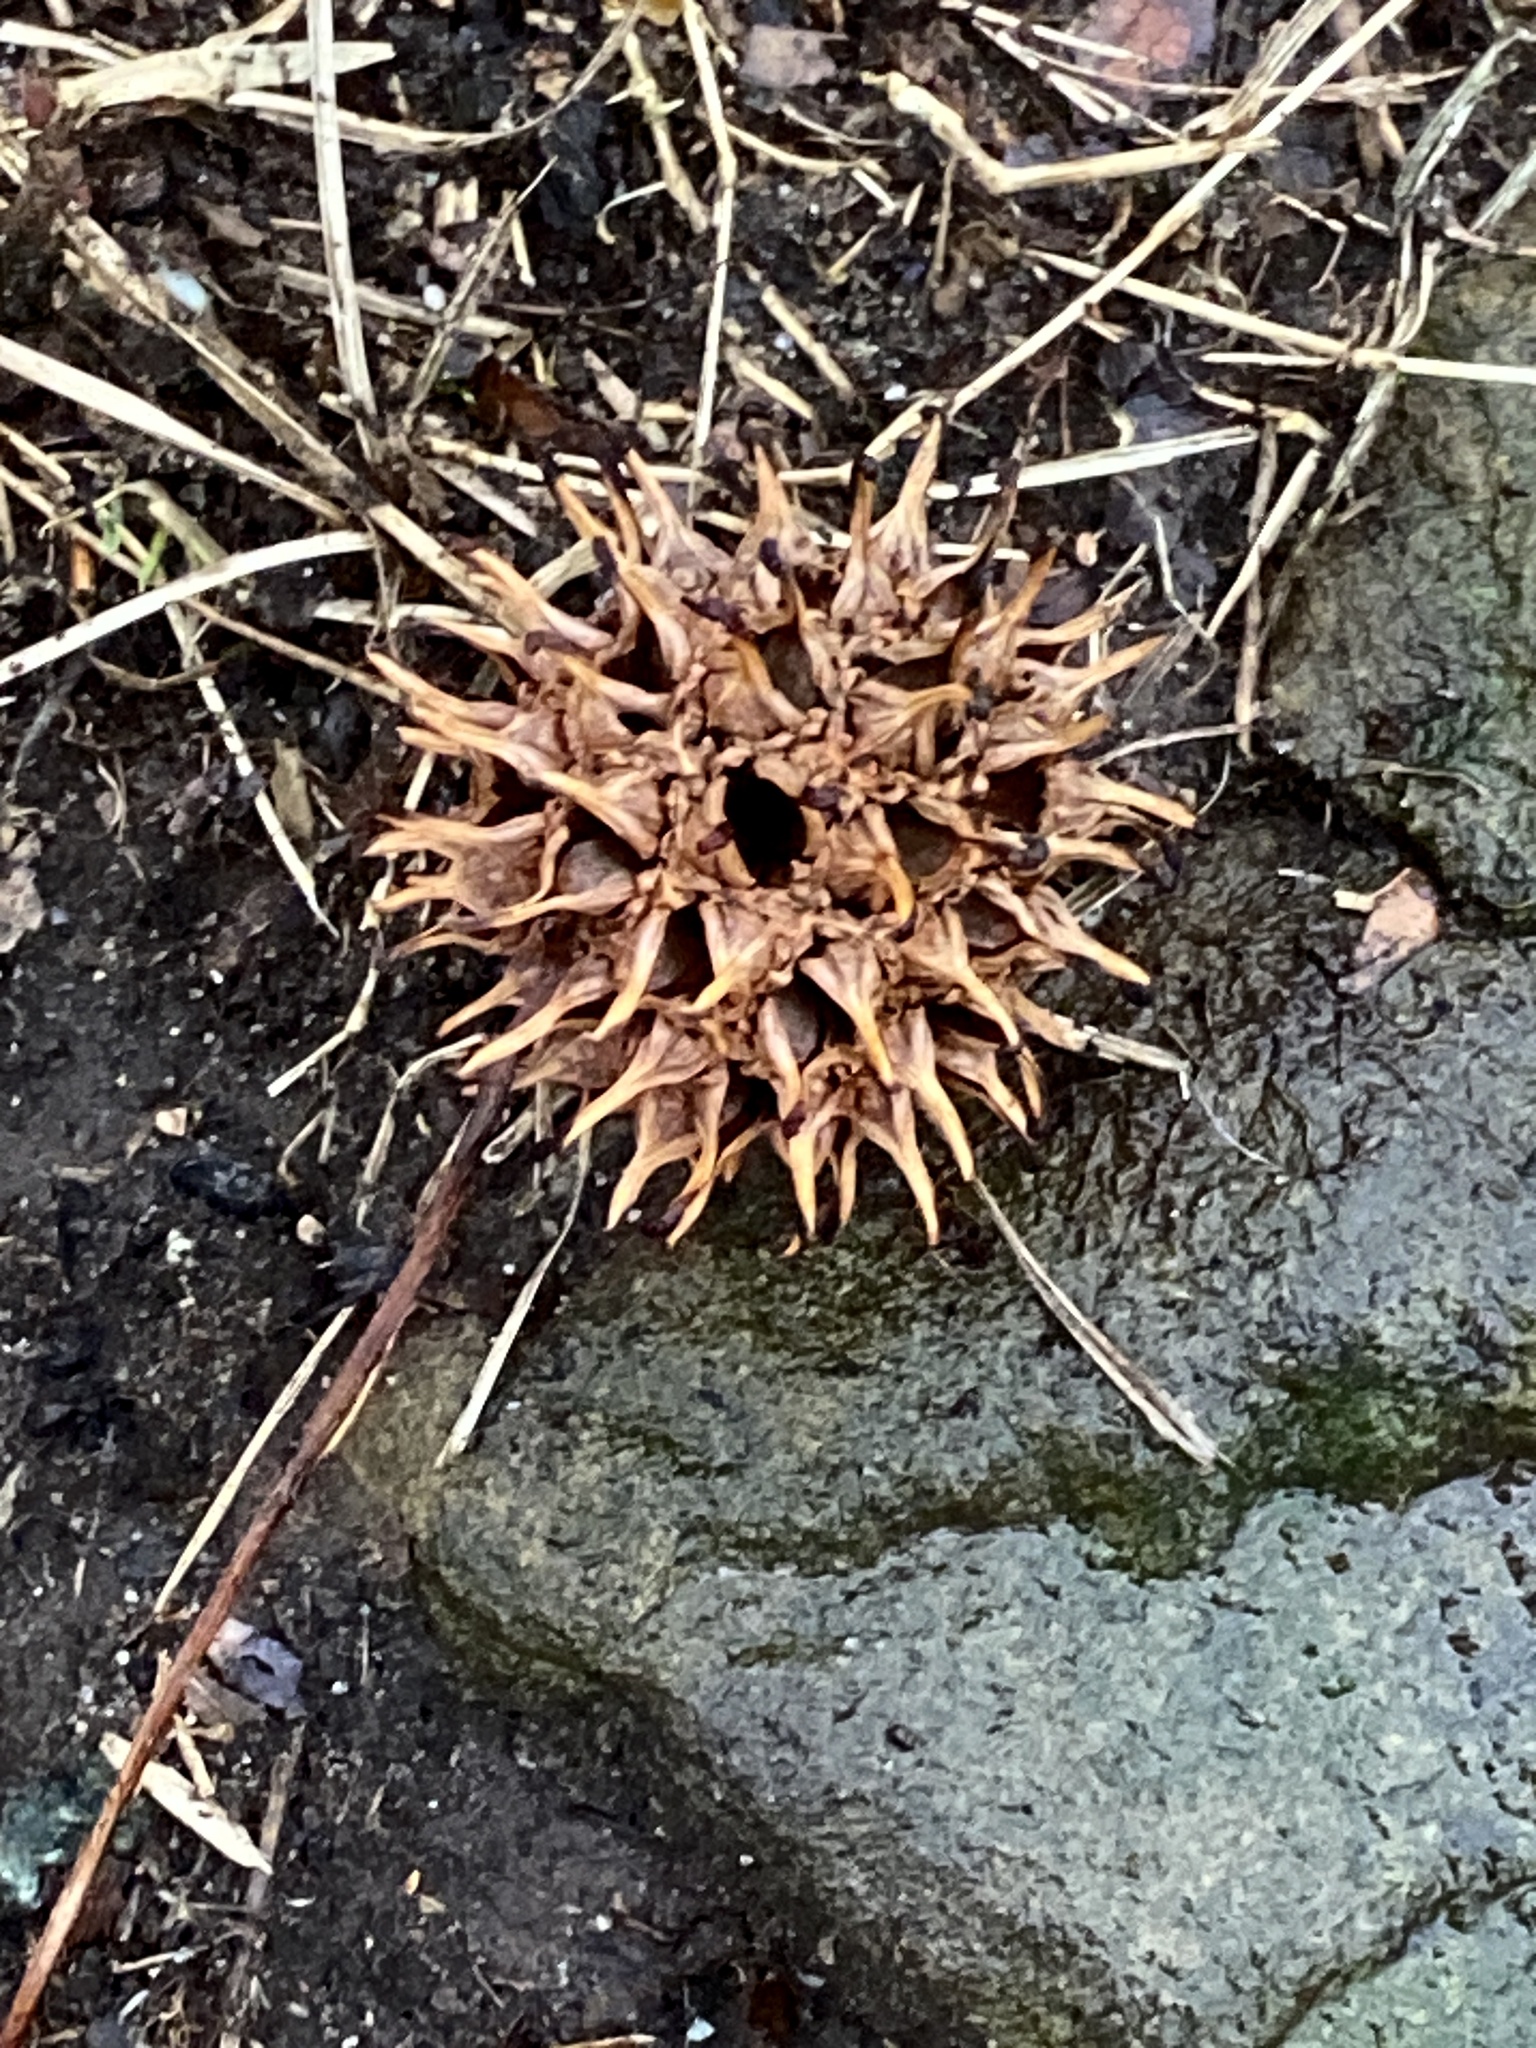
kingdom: Plantae
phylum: Tracheophyta
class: Magnoliopsida
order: Saxifragales
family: Altingiaceae
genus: Liquidambar
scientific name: Liquidambar styraciflua
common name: Sweet gum
